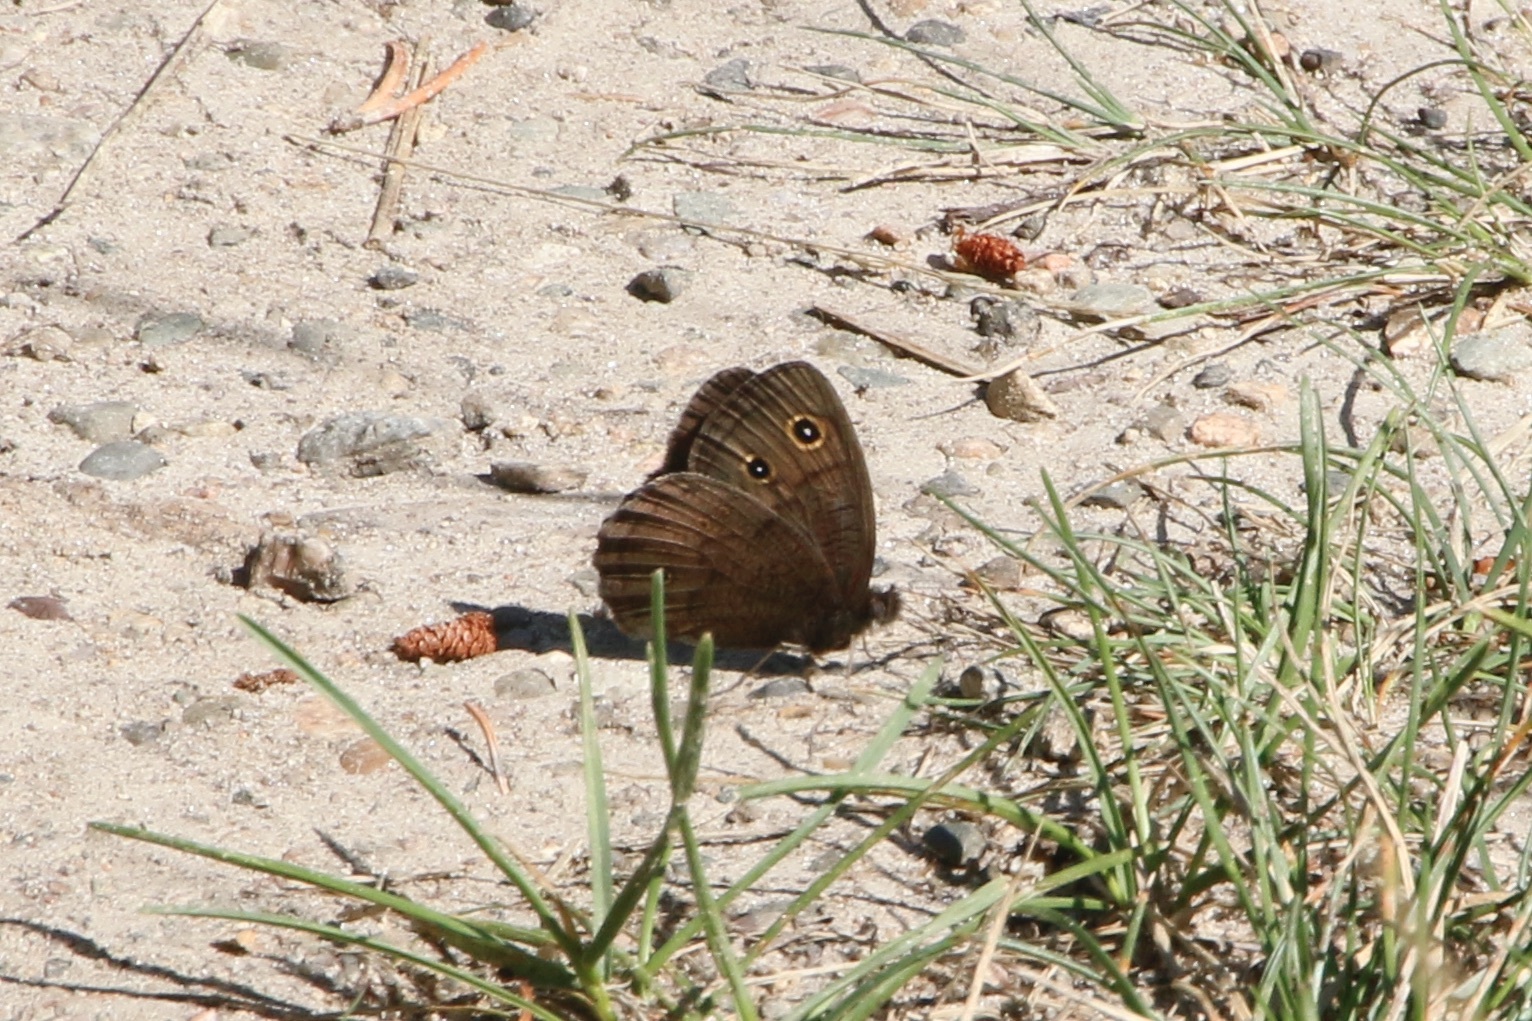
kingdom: Animalia
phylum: Arthropoda
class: Insecta
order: Lepidoptera
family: Nymphalidae
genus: Cercyonis
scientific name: Cercyonis pegala
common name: Common wood-nymph
